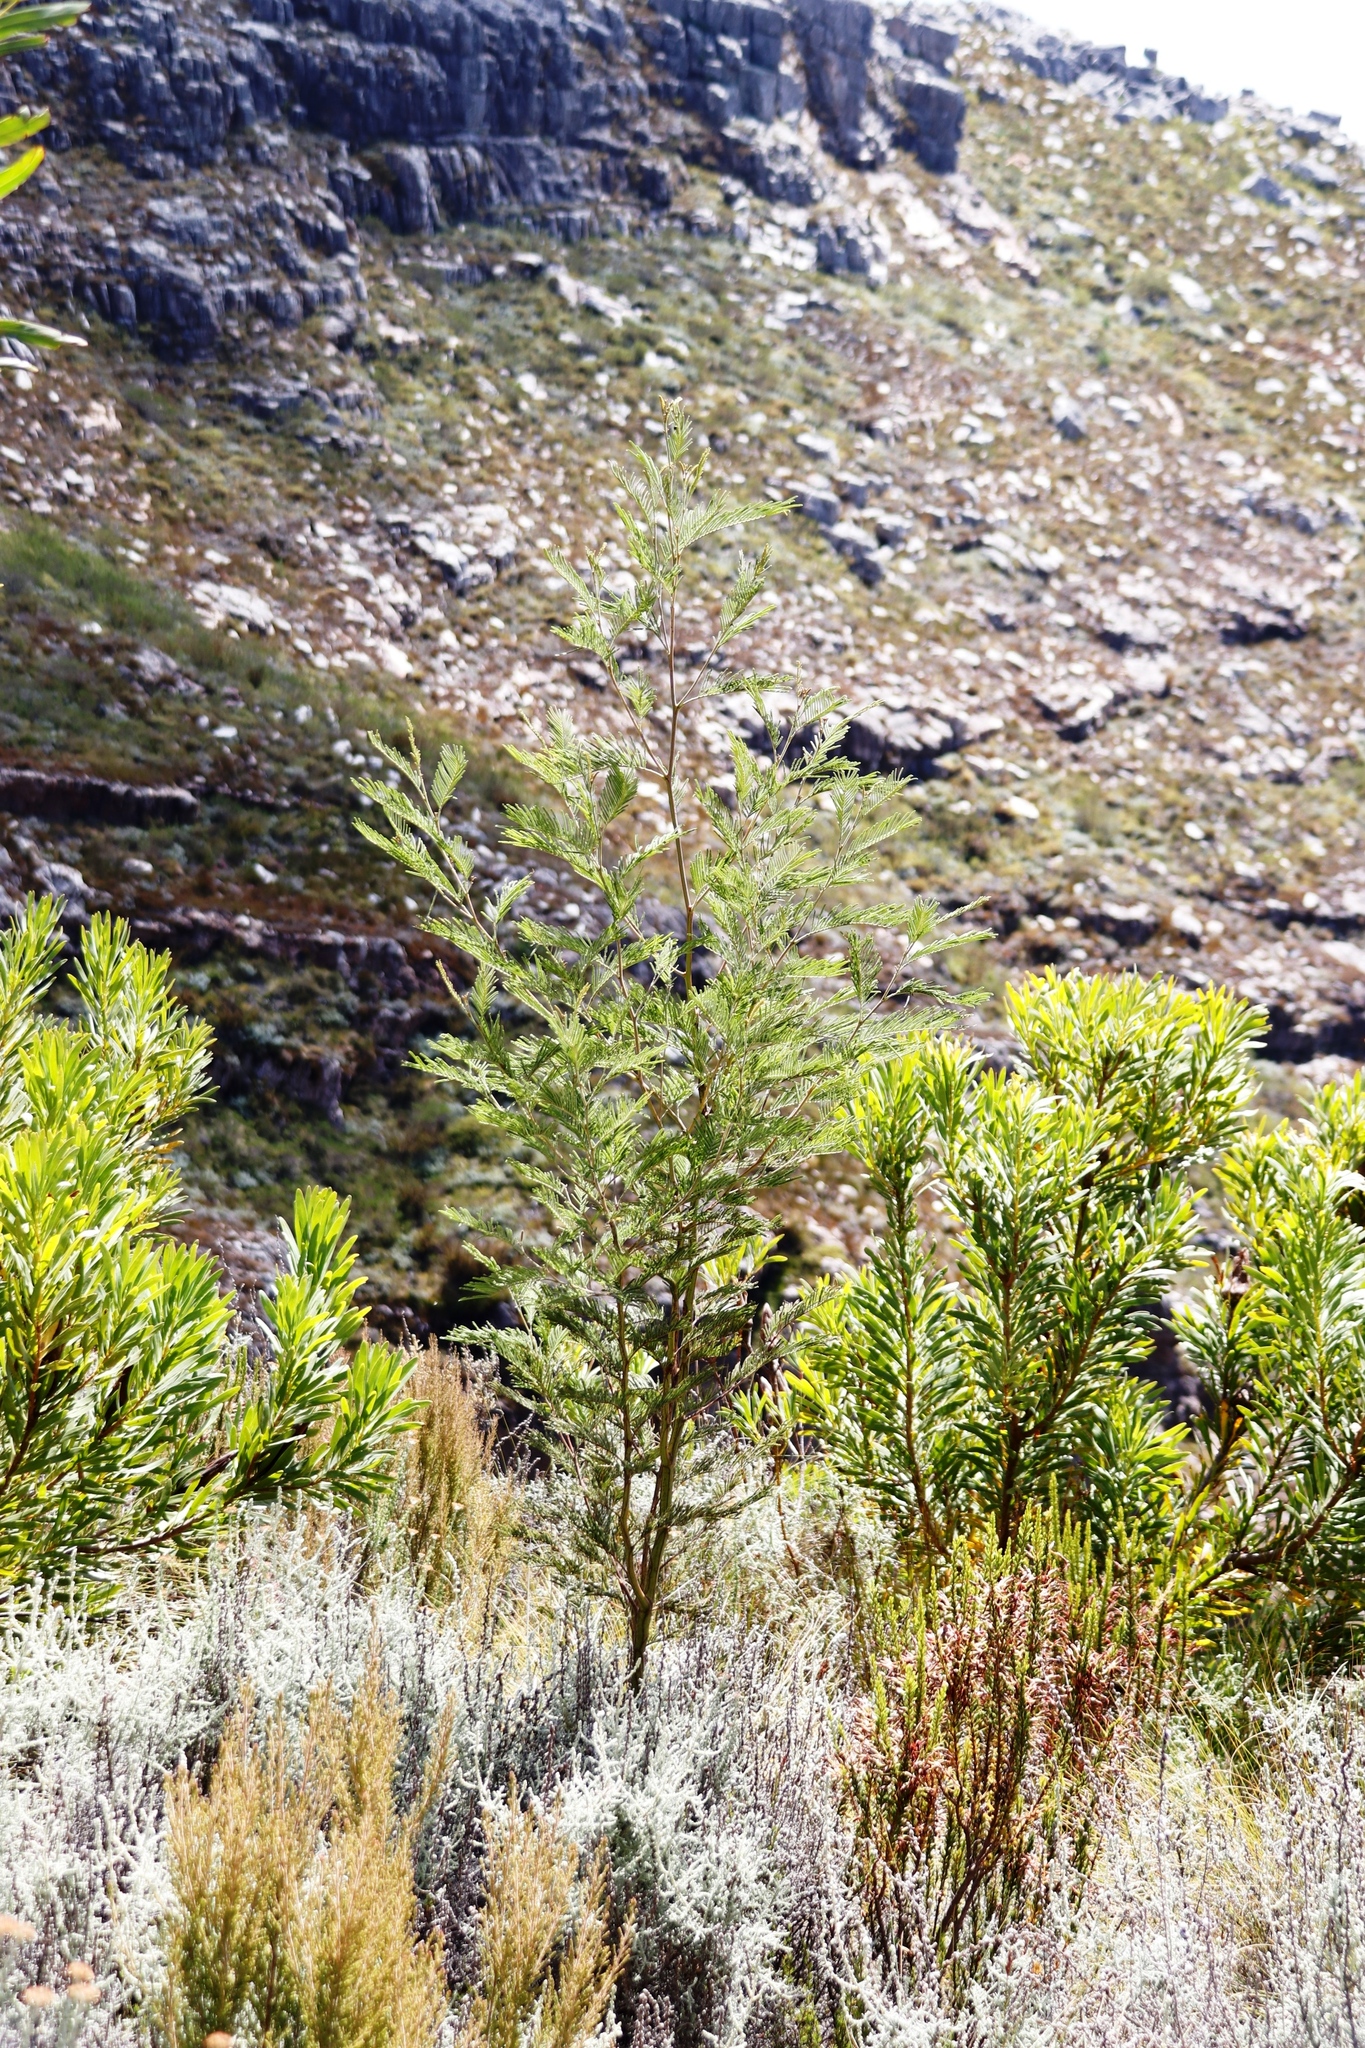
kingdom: Plantae
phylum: Tracheophyta
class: Magnoliopsida
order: Fabales
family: Fabaceae
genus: Acacia
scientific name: Acacia mearnsii
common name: Black wattle
